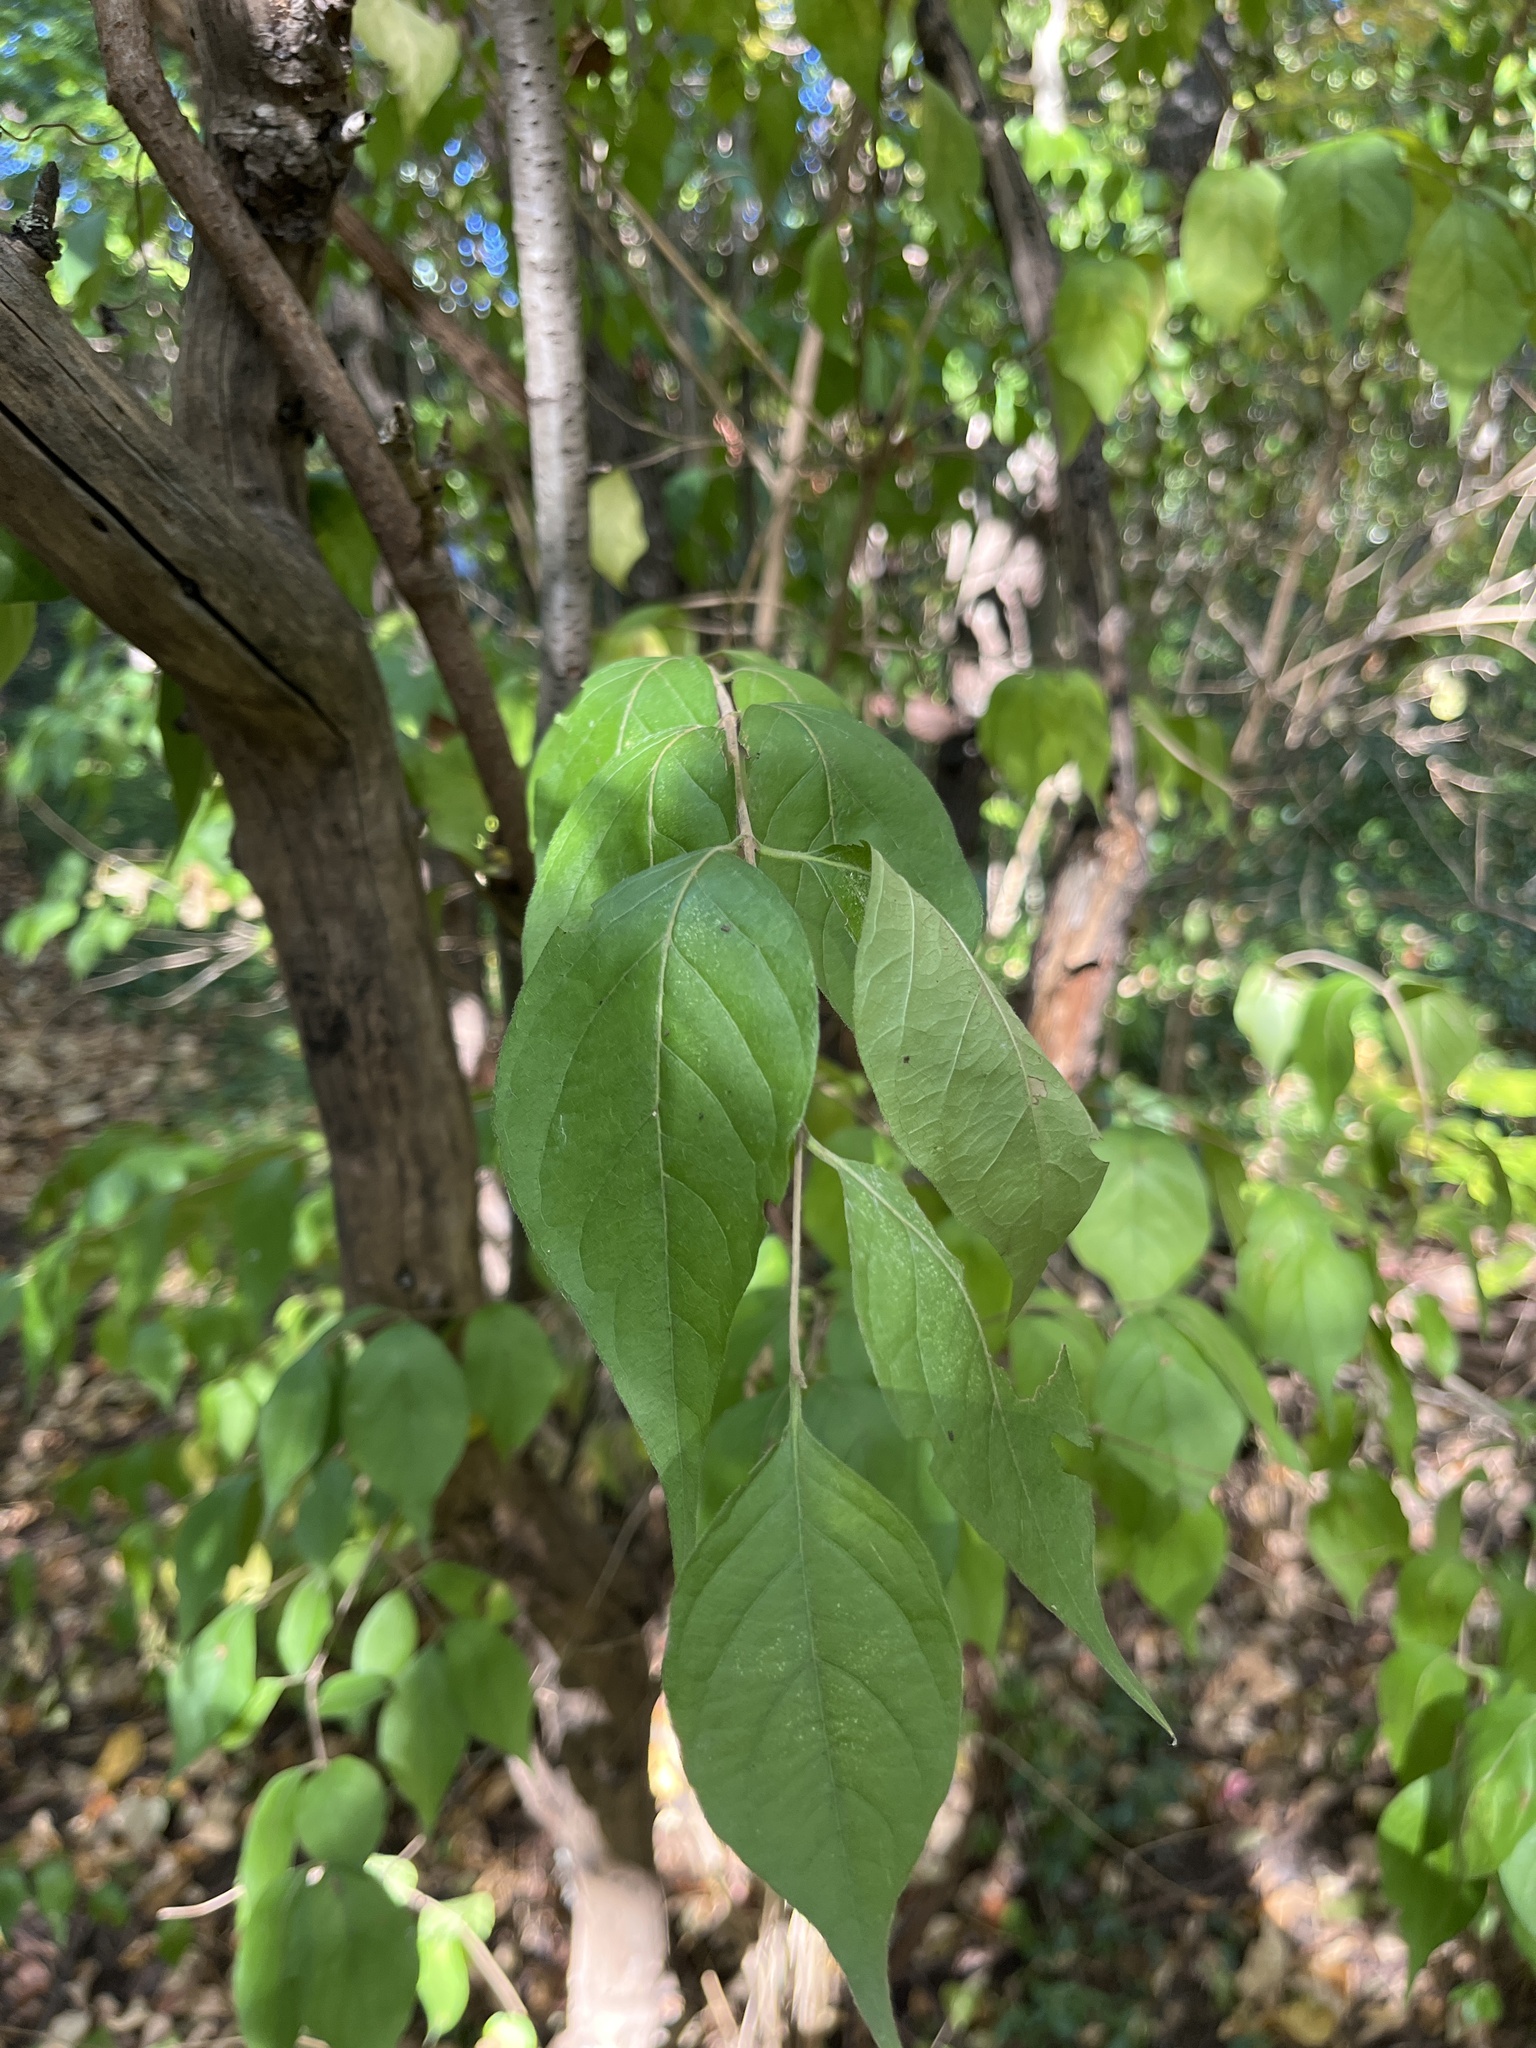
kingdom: Plantae
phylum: Tracheophyta
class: Magnoliopsida
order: Dipsacales
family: Caprifoliaceae
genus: Lonicera
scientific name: Lonicera maackii
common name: Amur honeysuckle
